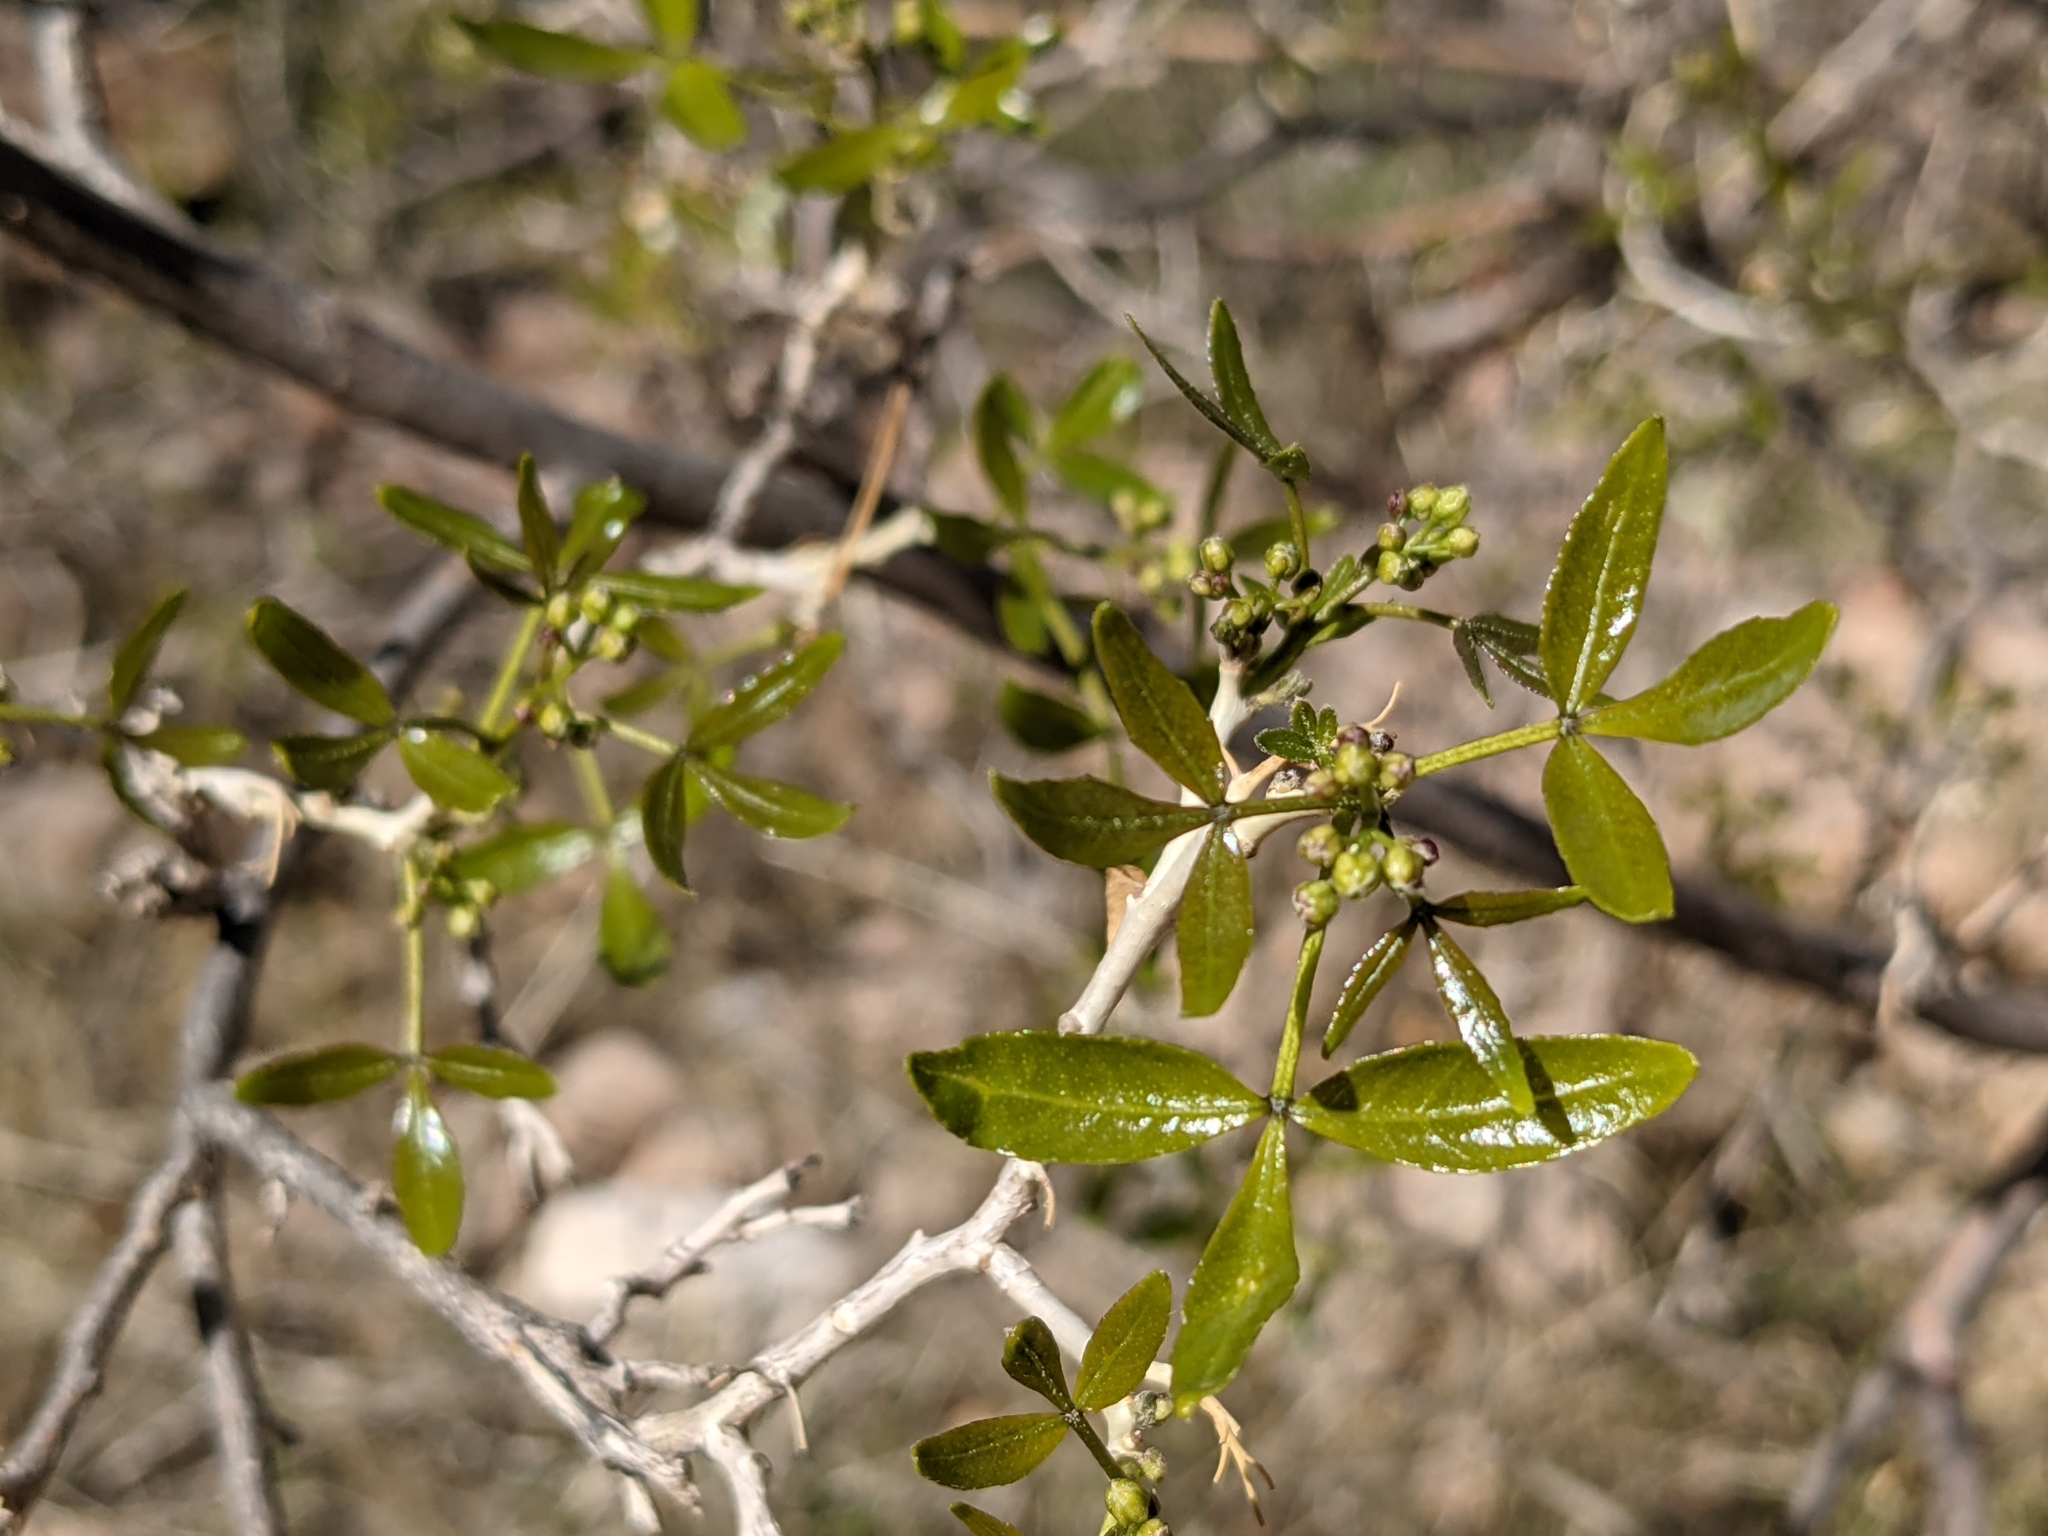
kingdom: Plantae
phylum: Tracheophyta
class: Magnoliopsida
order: Sapindales
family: Rutaceae
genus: Ptelea
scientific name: Ptelea trifoliata
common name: Common hop-tree
